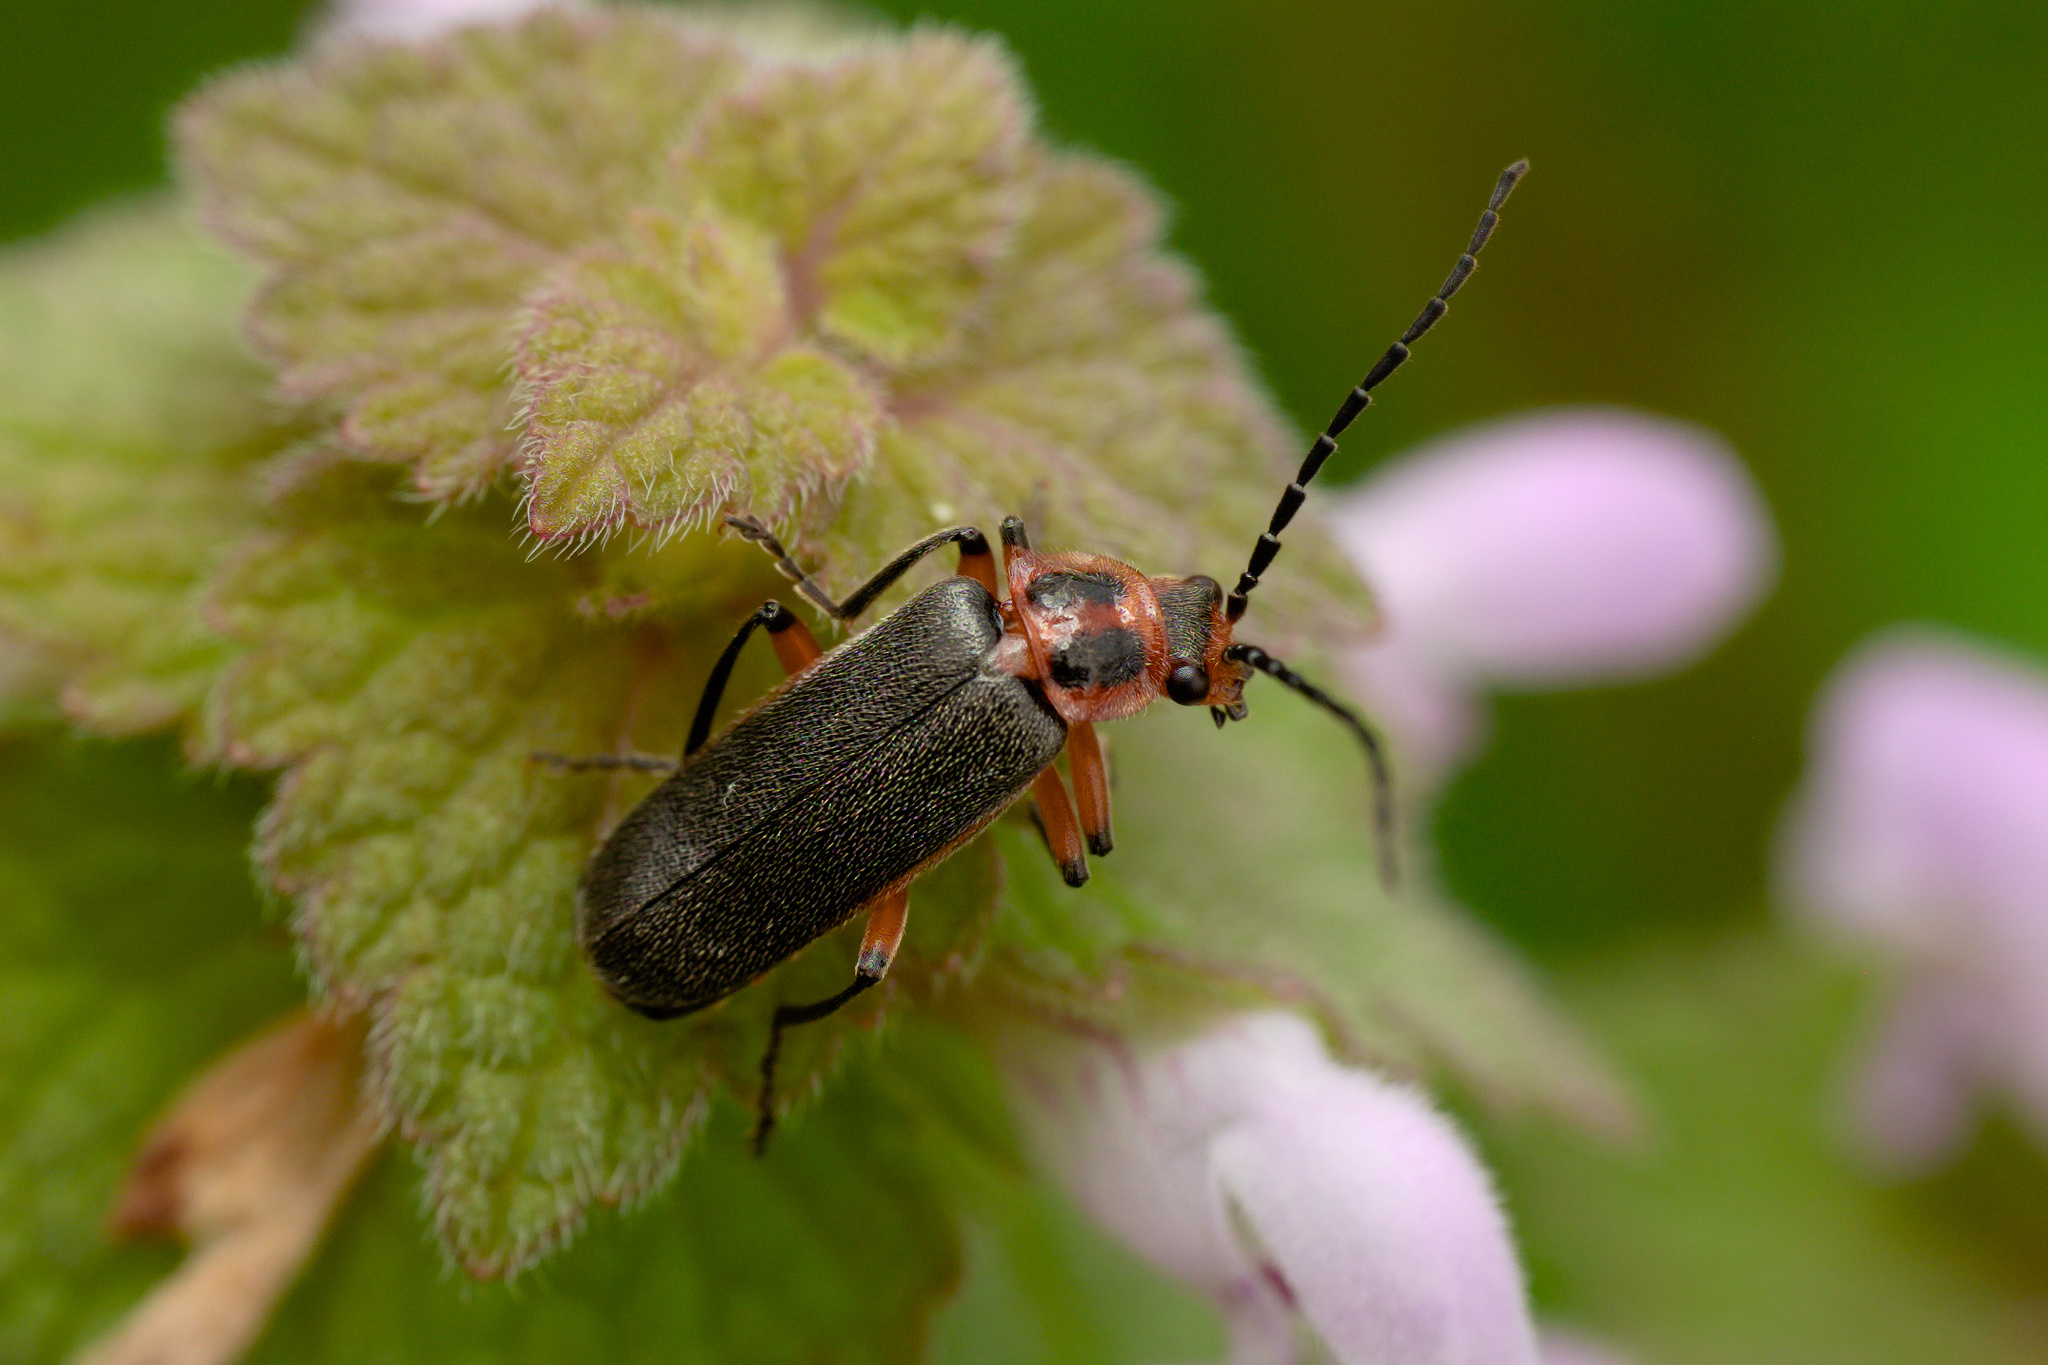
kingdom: Animalia
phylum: Arthropoda
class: Insecta
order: Coleoptera
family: Cantharidae
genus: Atalantycha
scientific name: Atalantycha bilineata
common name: Two-lined leatherwing
